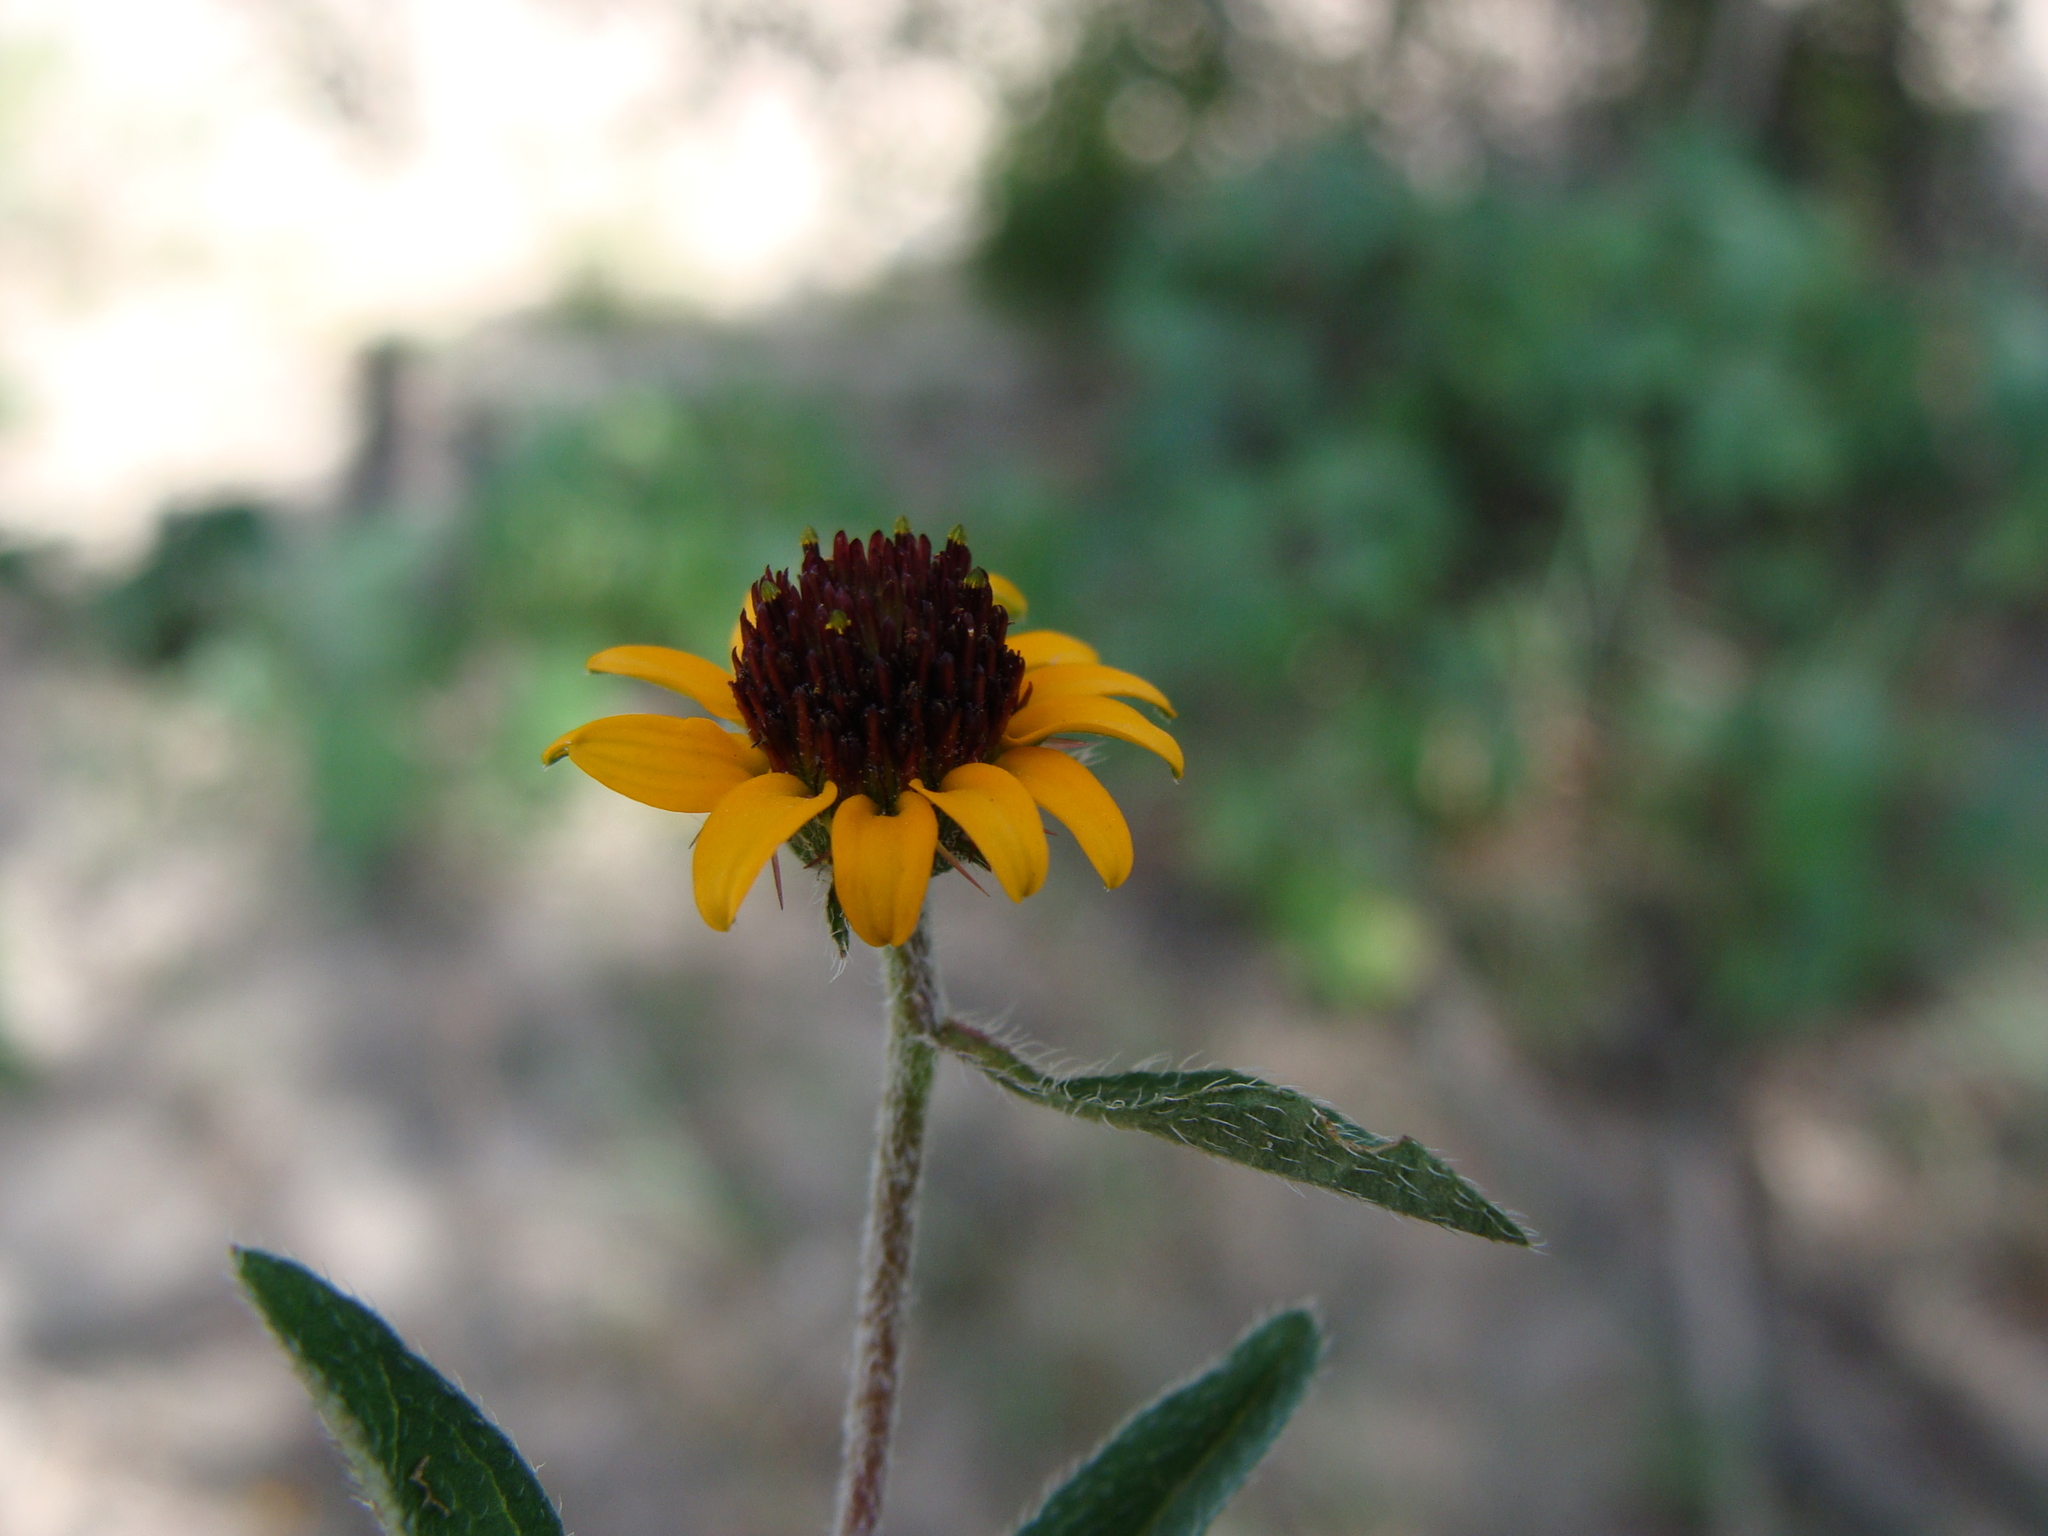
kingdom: Plantae
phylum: Tracheophyta
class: Magnoliopsida
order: Asterales
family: Asteraceae
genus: Sanvitalia
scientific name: Sanvitalia procumbens
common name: Mexican creeping zinnia
